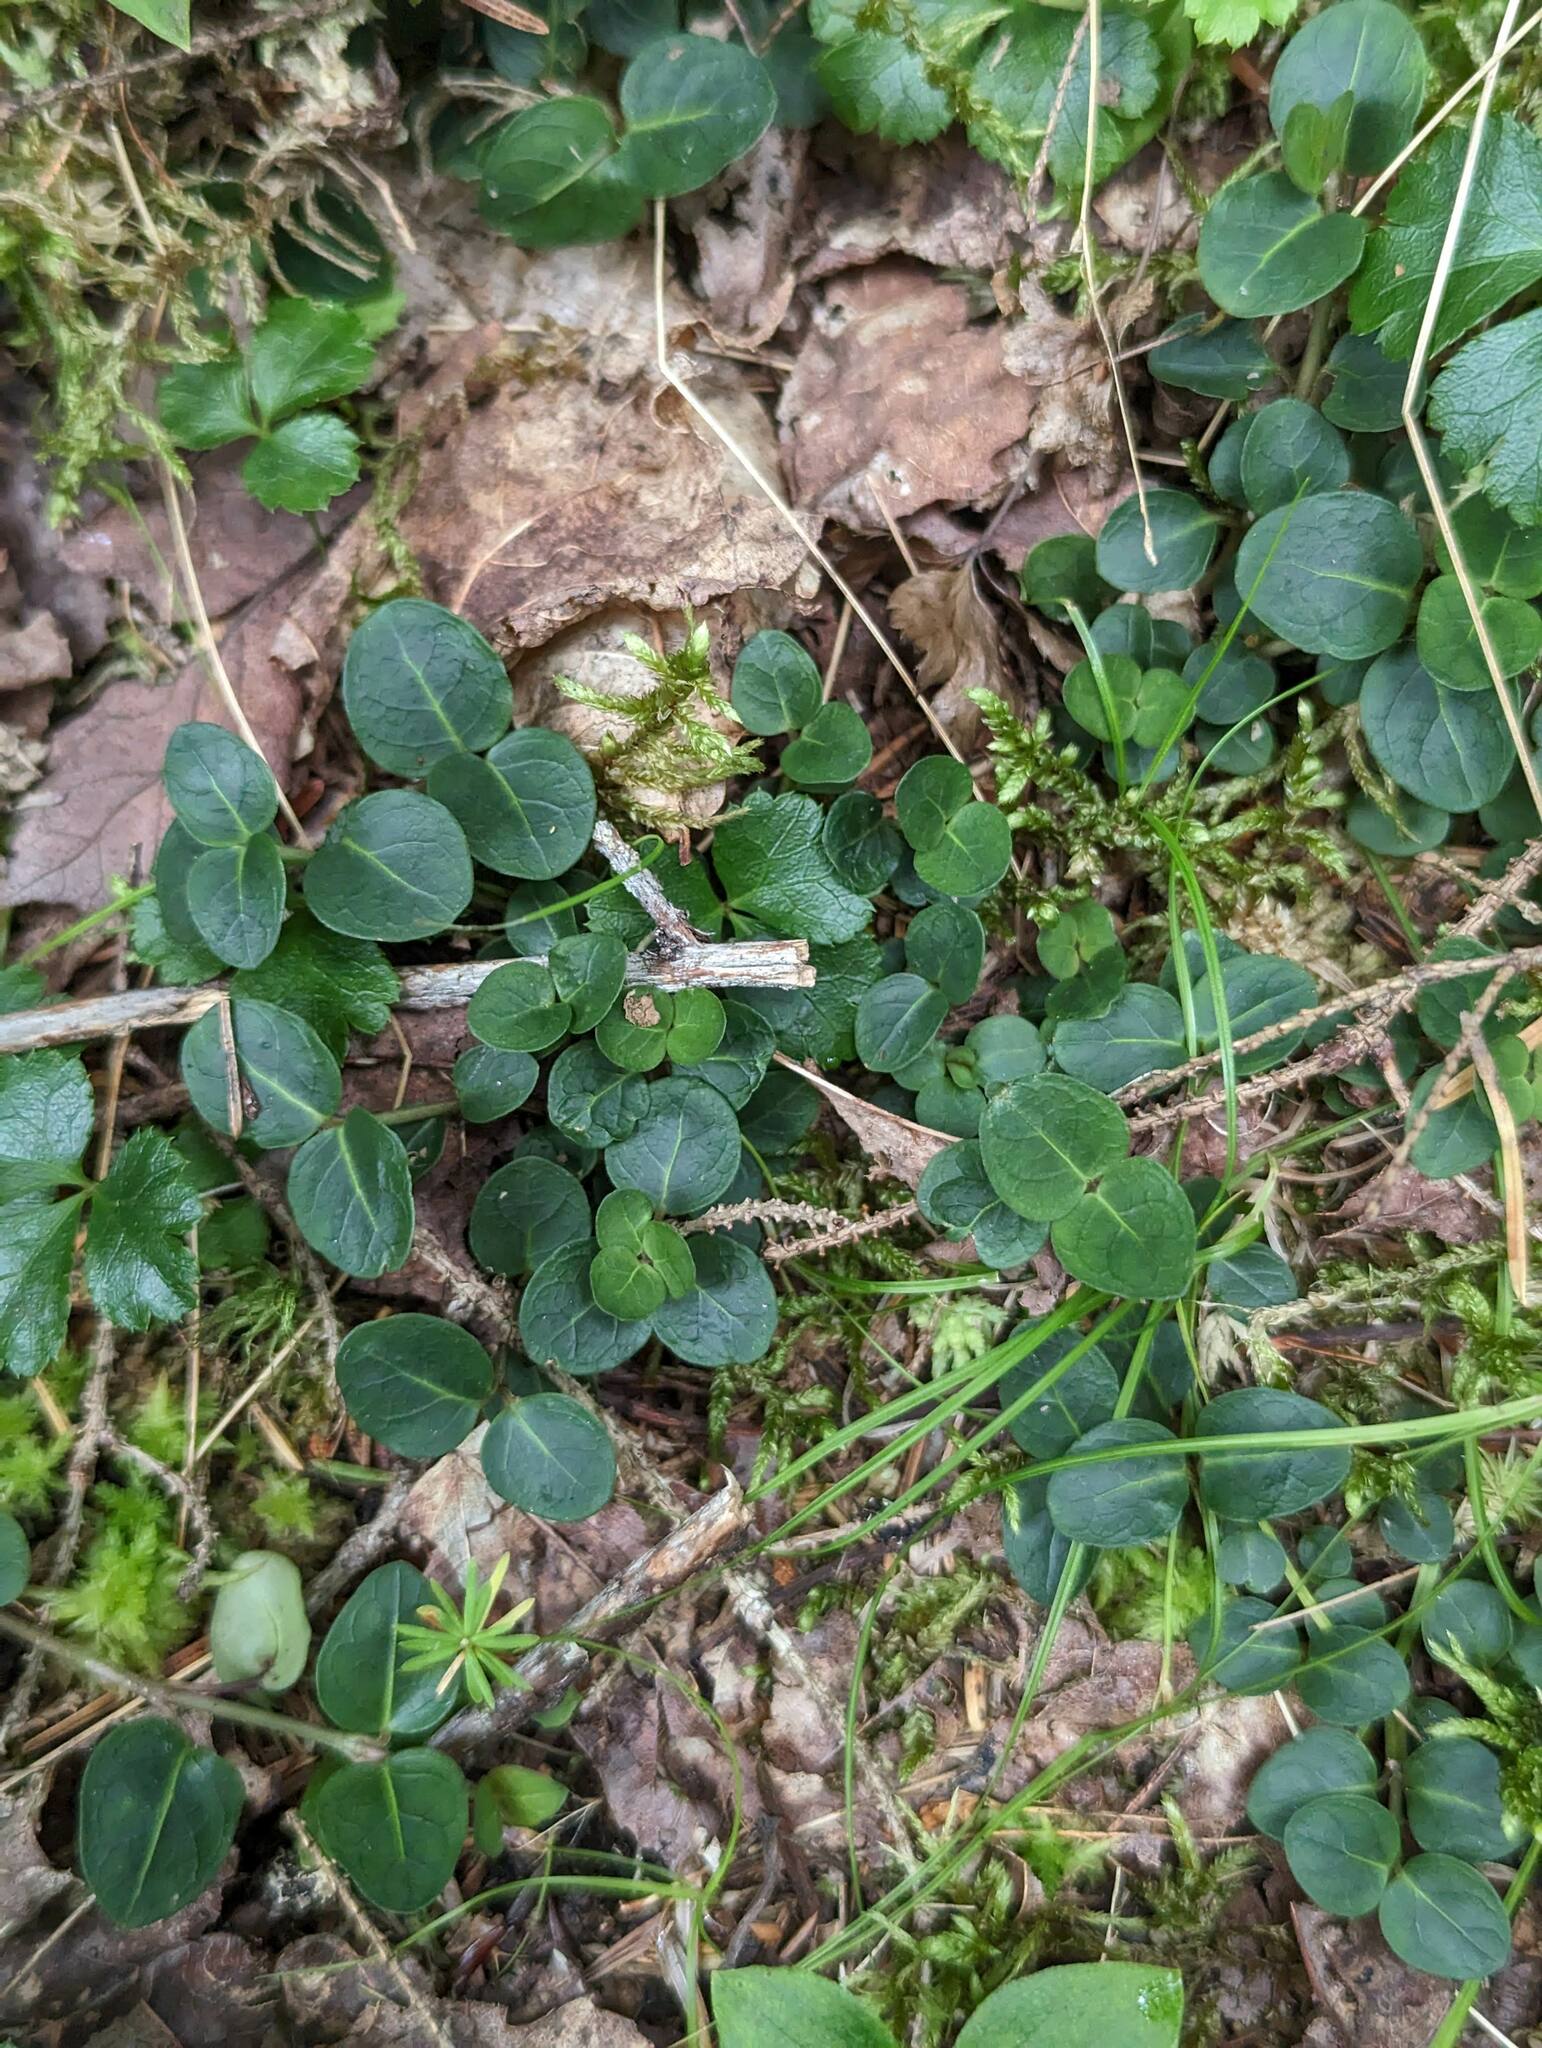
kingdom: Plantae
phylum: Tracheophyta
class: Magnoliopsida
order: Gentianales
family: Rubiaceae
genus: Mitchella
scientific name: Mitchella repens
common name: Partridge-berry
